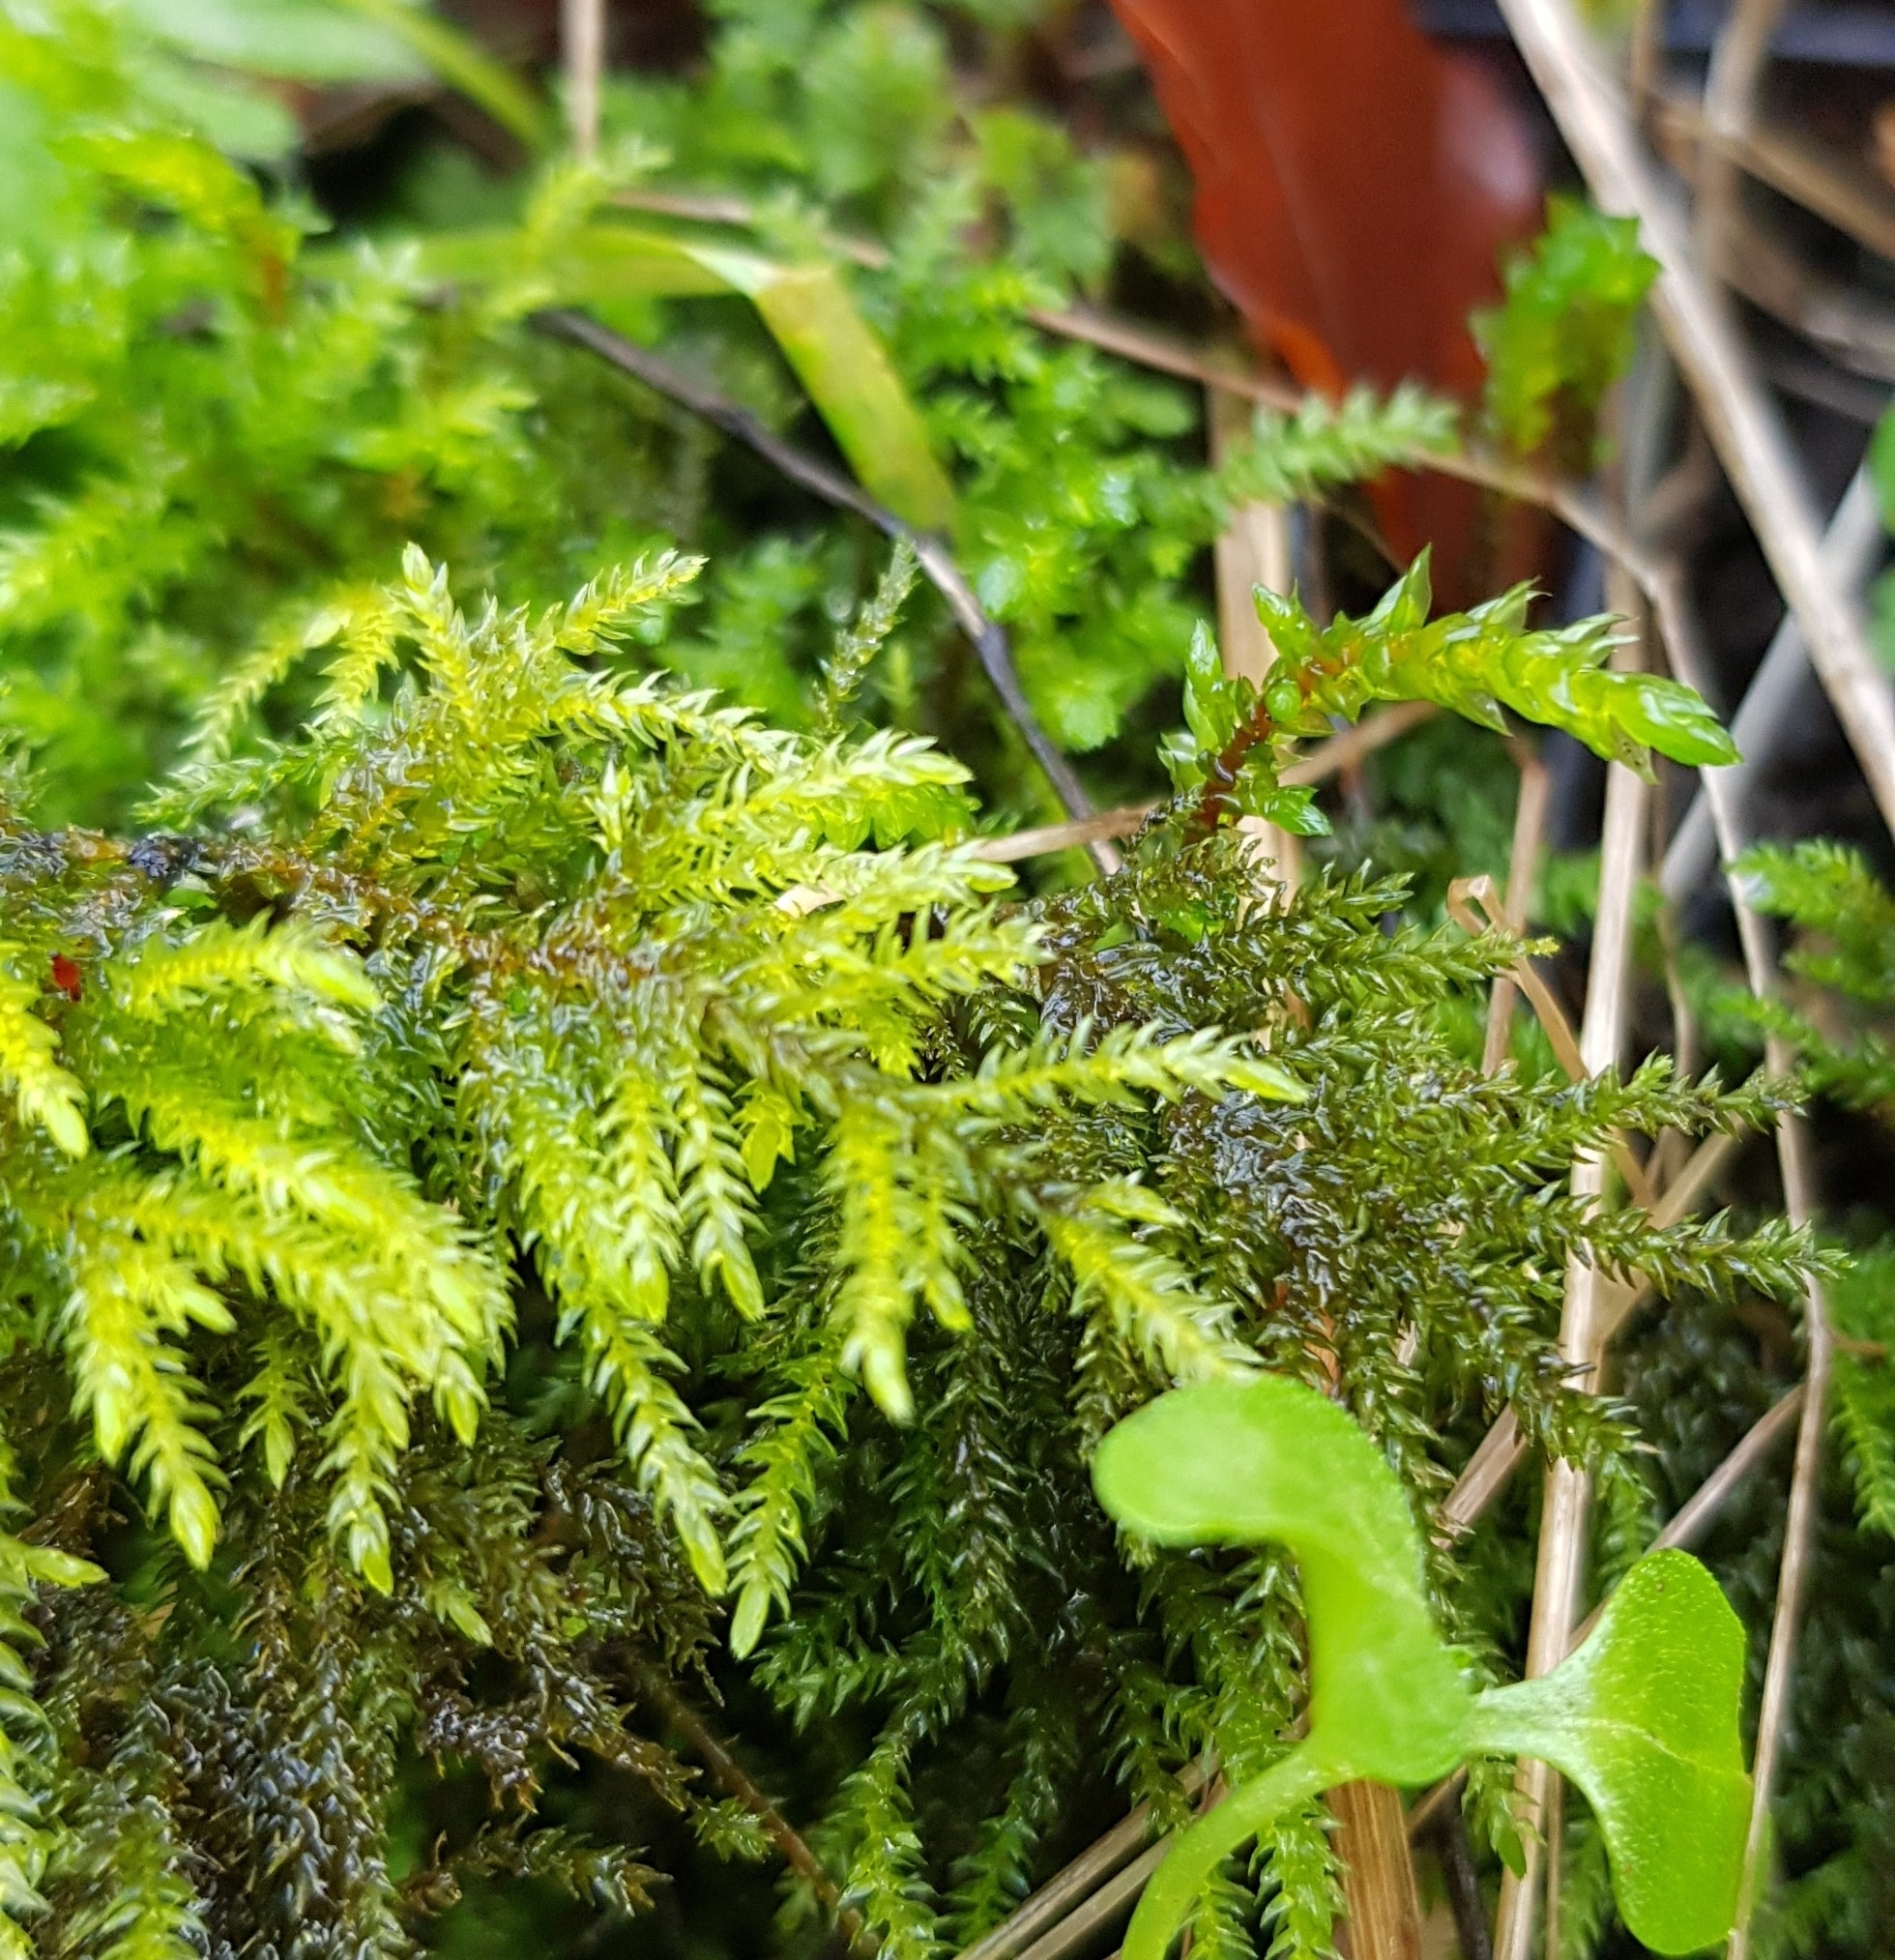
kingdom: Plantae
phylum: Bryophyta
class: Bryopsida
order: Hypnales
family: Neckeraceae
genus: Thamnobryum
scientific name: Thamnobryum alopecurum
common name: Fox-tail feather-moss
